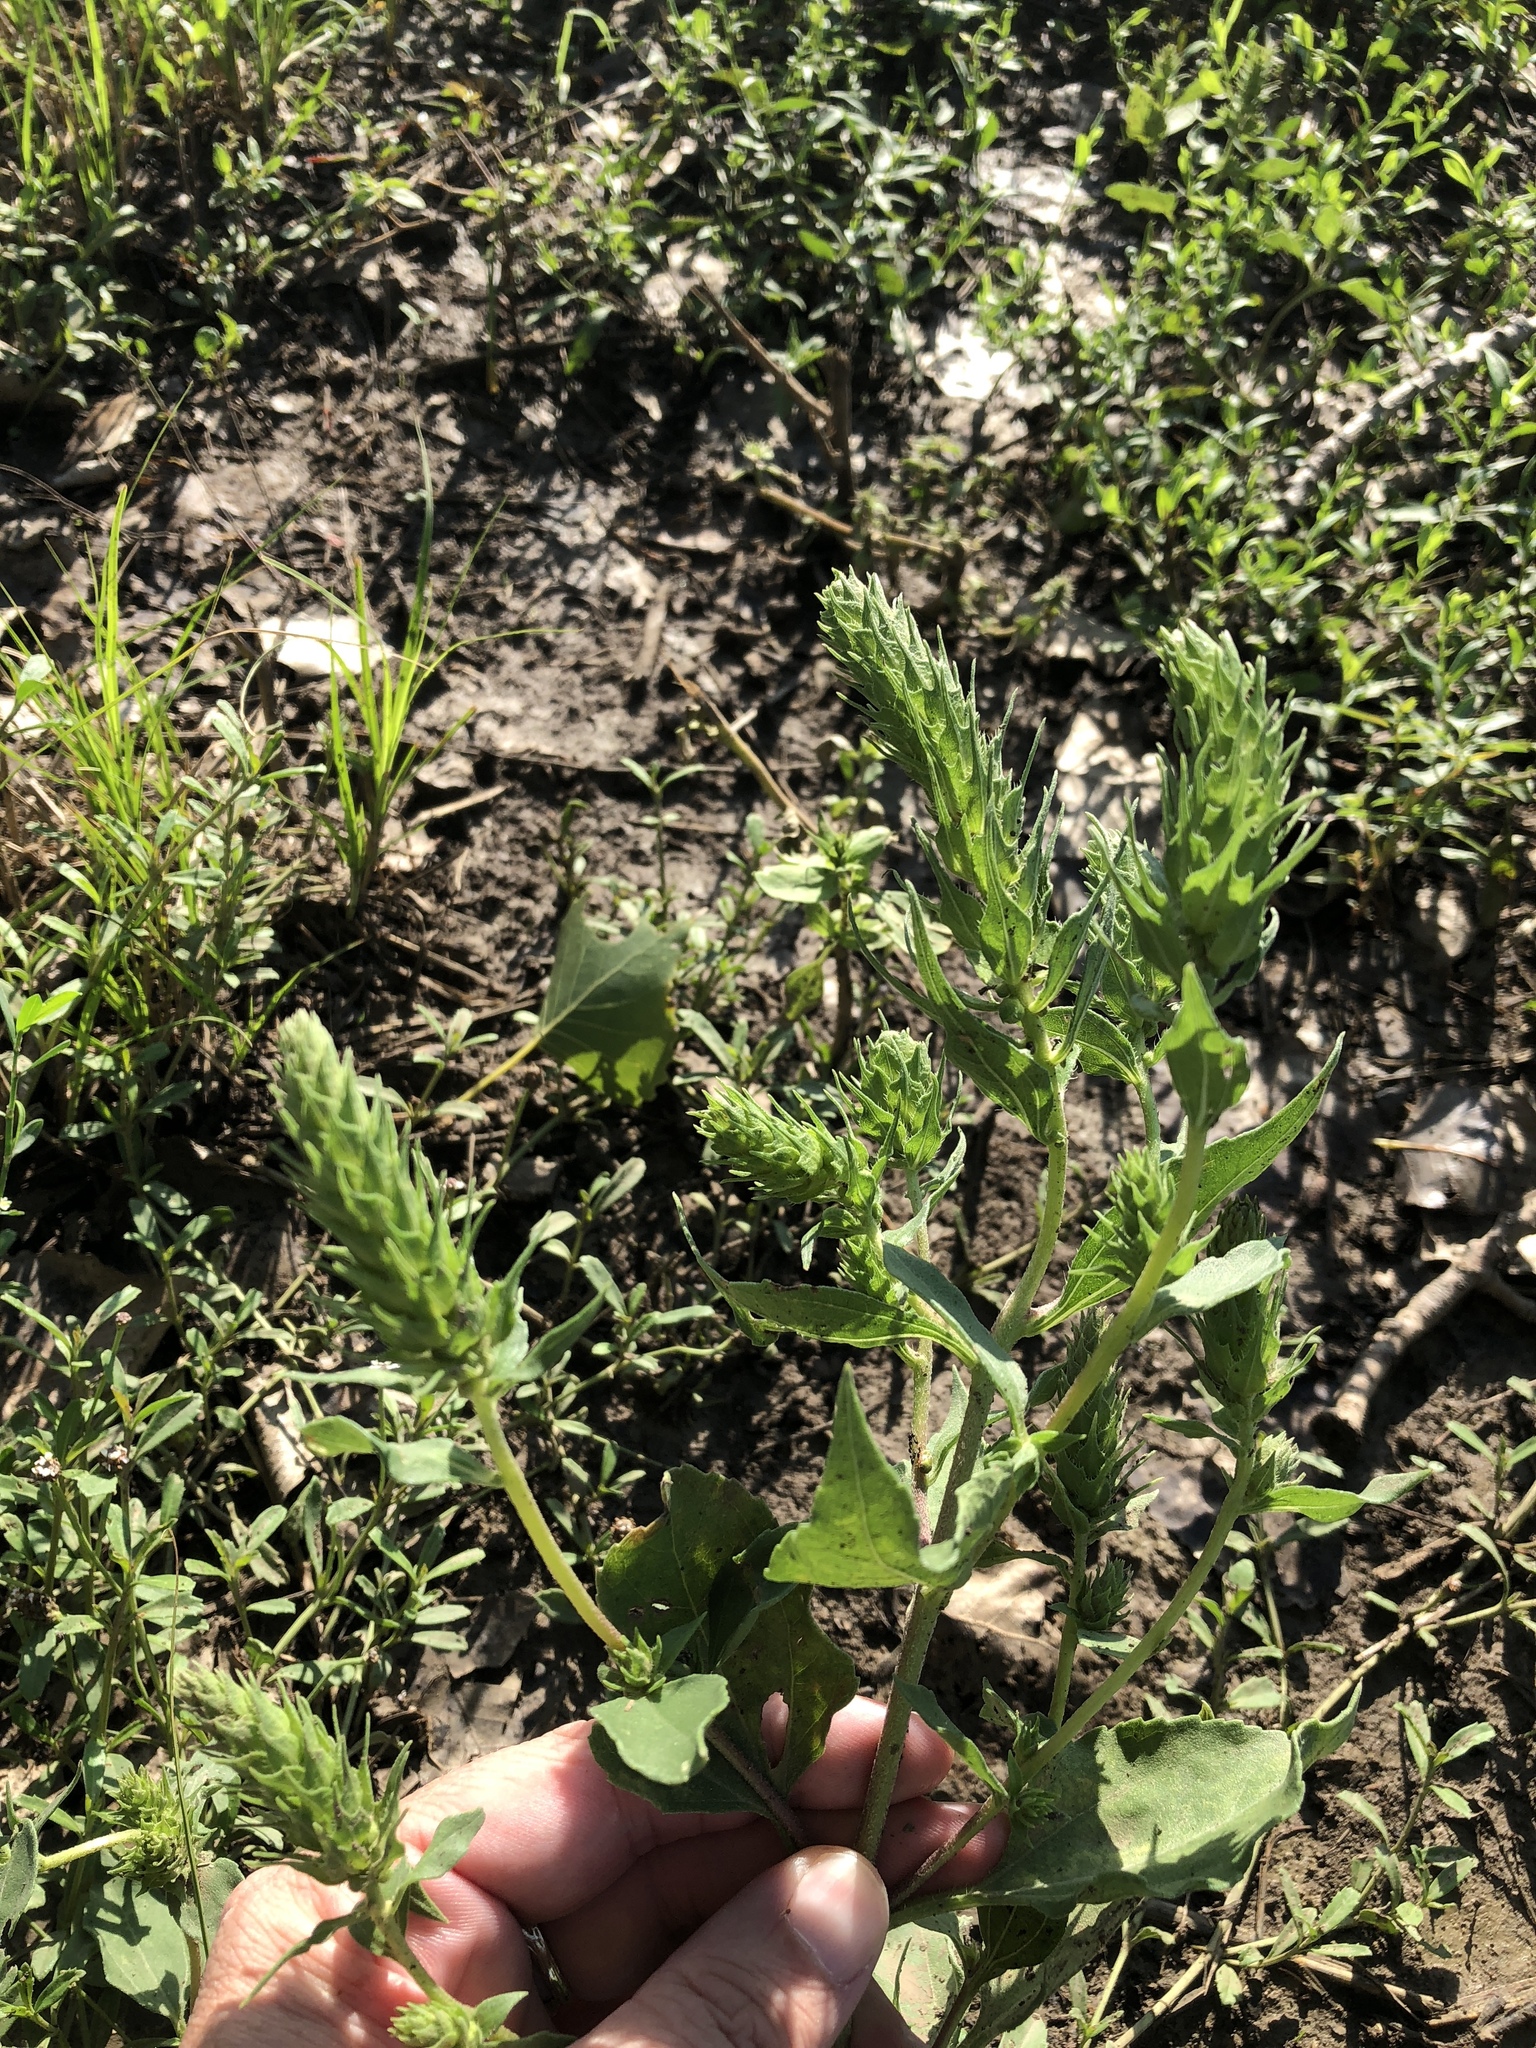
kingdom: Plantae
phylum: Tracheophyta
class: Magnoliopsida
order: Asterales
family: Asteraceae
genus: Iva
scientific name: Iva annua
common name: Marsh-elder
